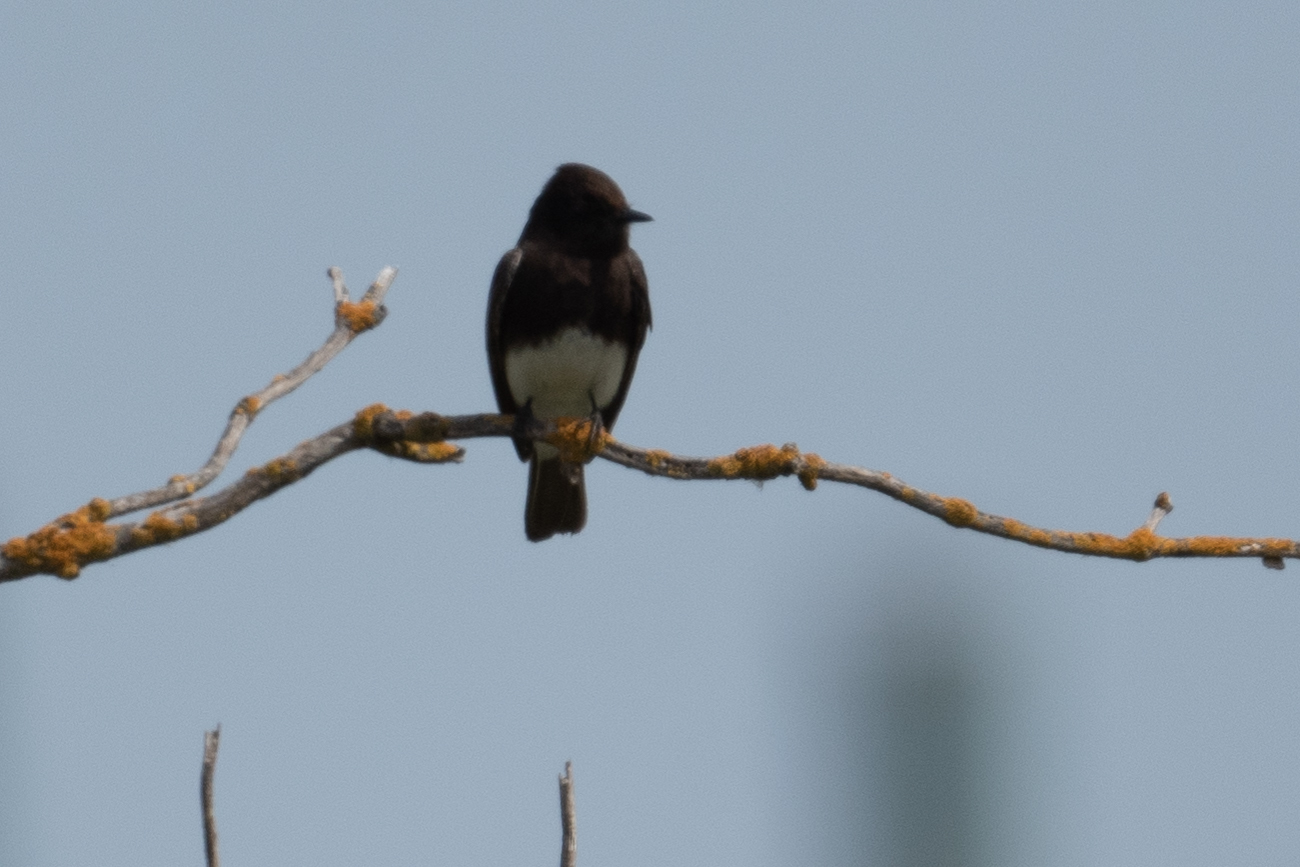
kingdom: Animalia
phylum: Chordata
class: Aves
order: Passeriformes
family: Tyrannidae
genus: Sayornis
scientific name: Sayornis nigricans
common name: Black phoebe
